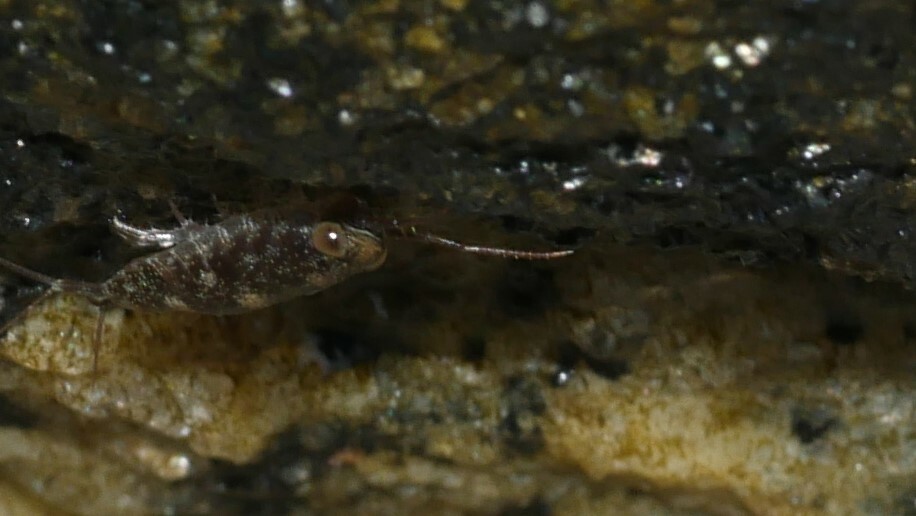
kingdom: Animalia
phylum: Arthropoda
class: Malacostraca
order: Isopoda
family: Ligiidae
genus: Ligia
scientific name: Ligia exotica
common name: Wharf roach
